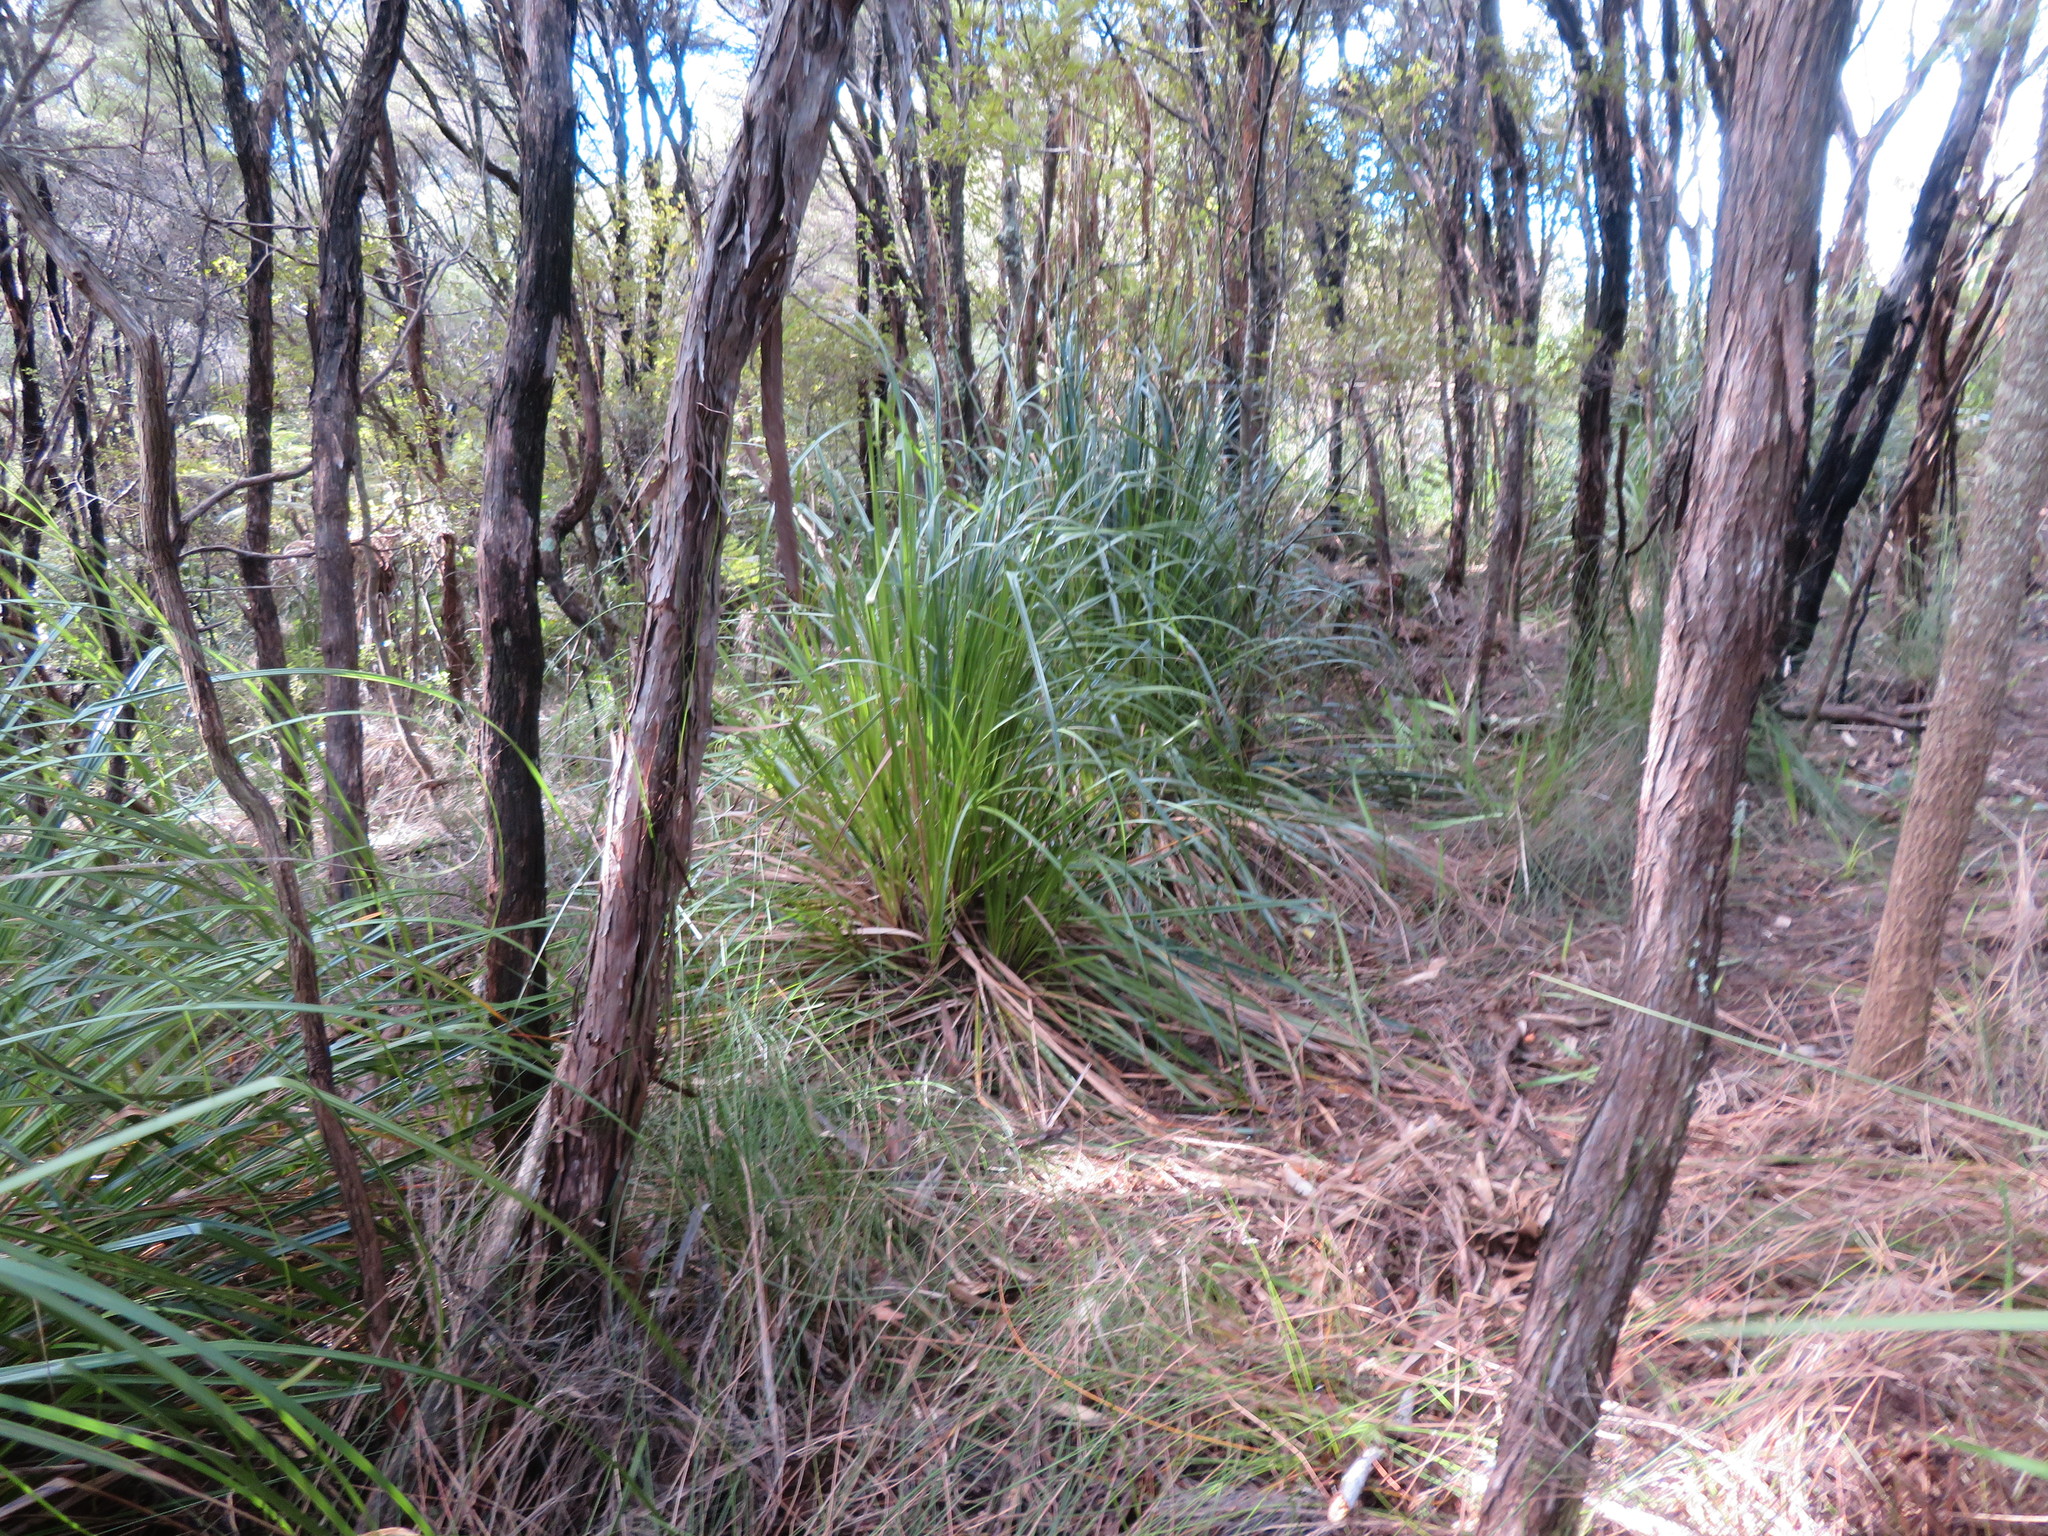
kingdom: Plantae
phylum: Tracheophyta
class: Liliopsida
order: Poales
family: Cyperaceae
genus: Gahnia
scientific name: Gahnia xanthocarpa
